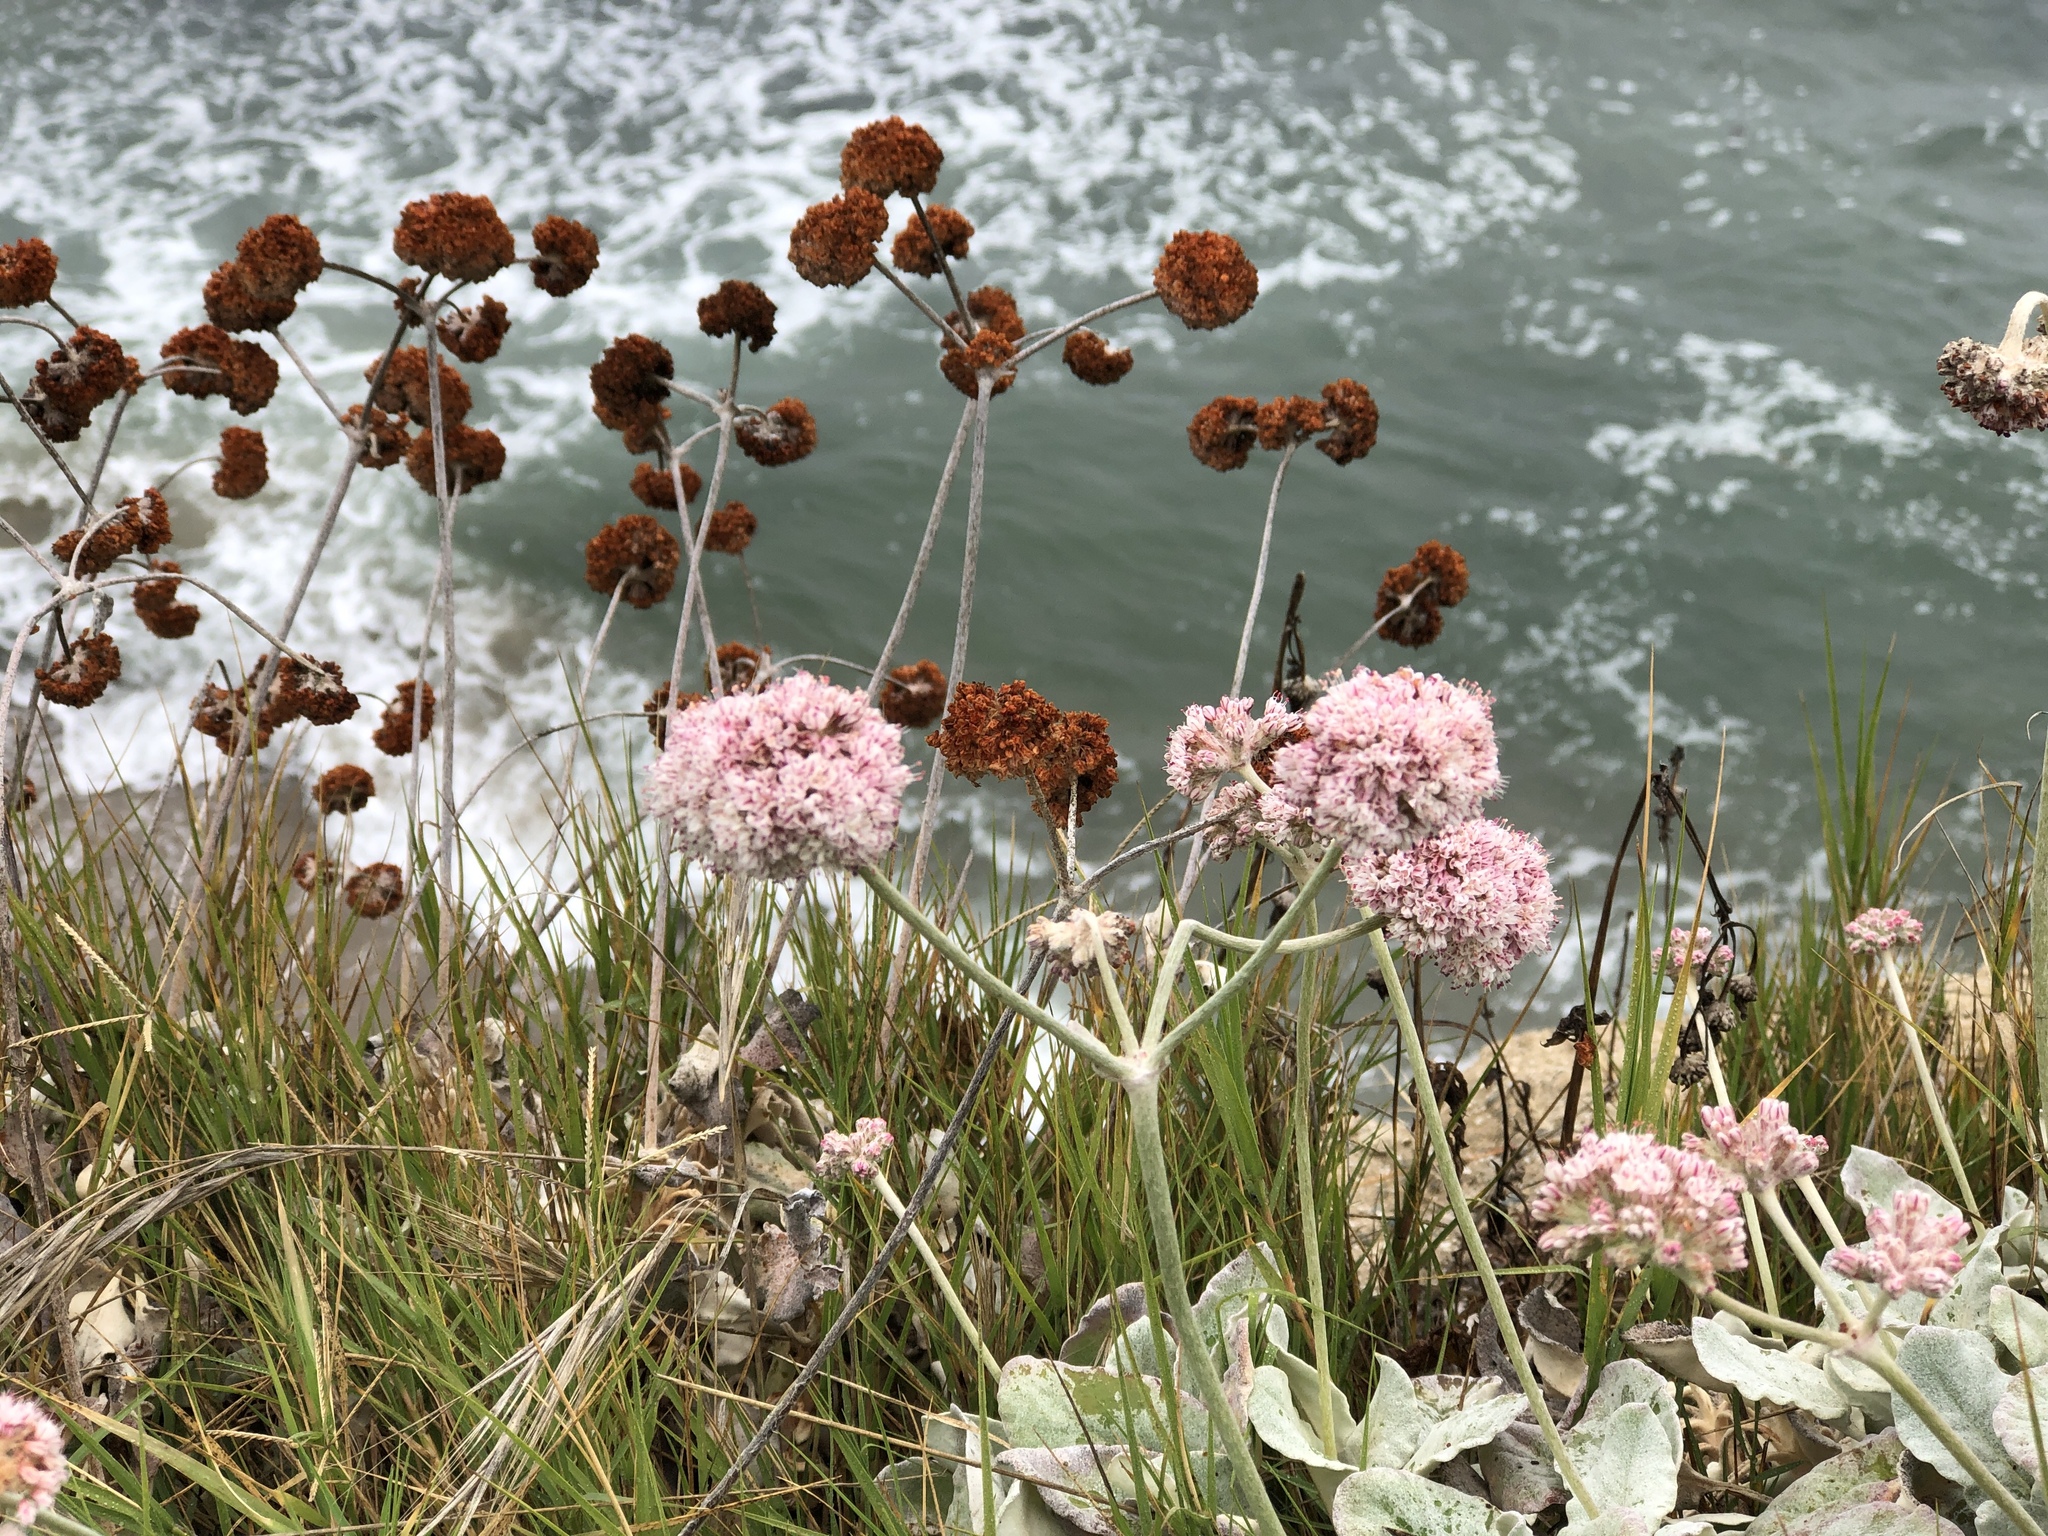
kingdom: Plantae
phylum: Tracheophyta
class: Magnoliopsida
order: Caryophyllales
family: Polygonaceae
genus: Eriogonum
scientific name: Eriogonum latifolium
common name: Seaside wild buckwheat
